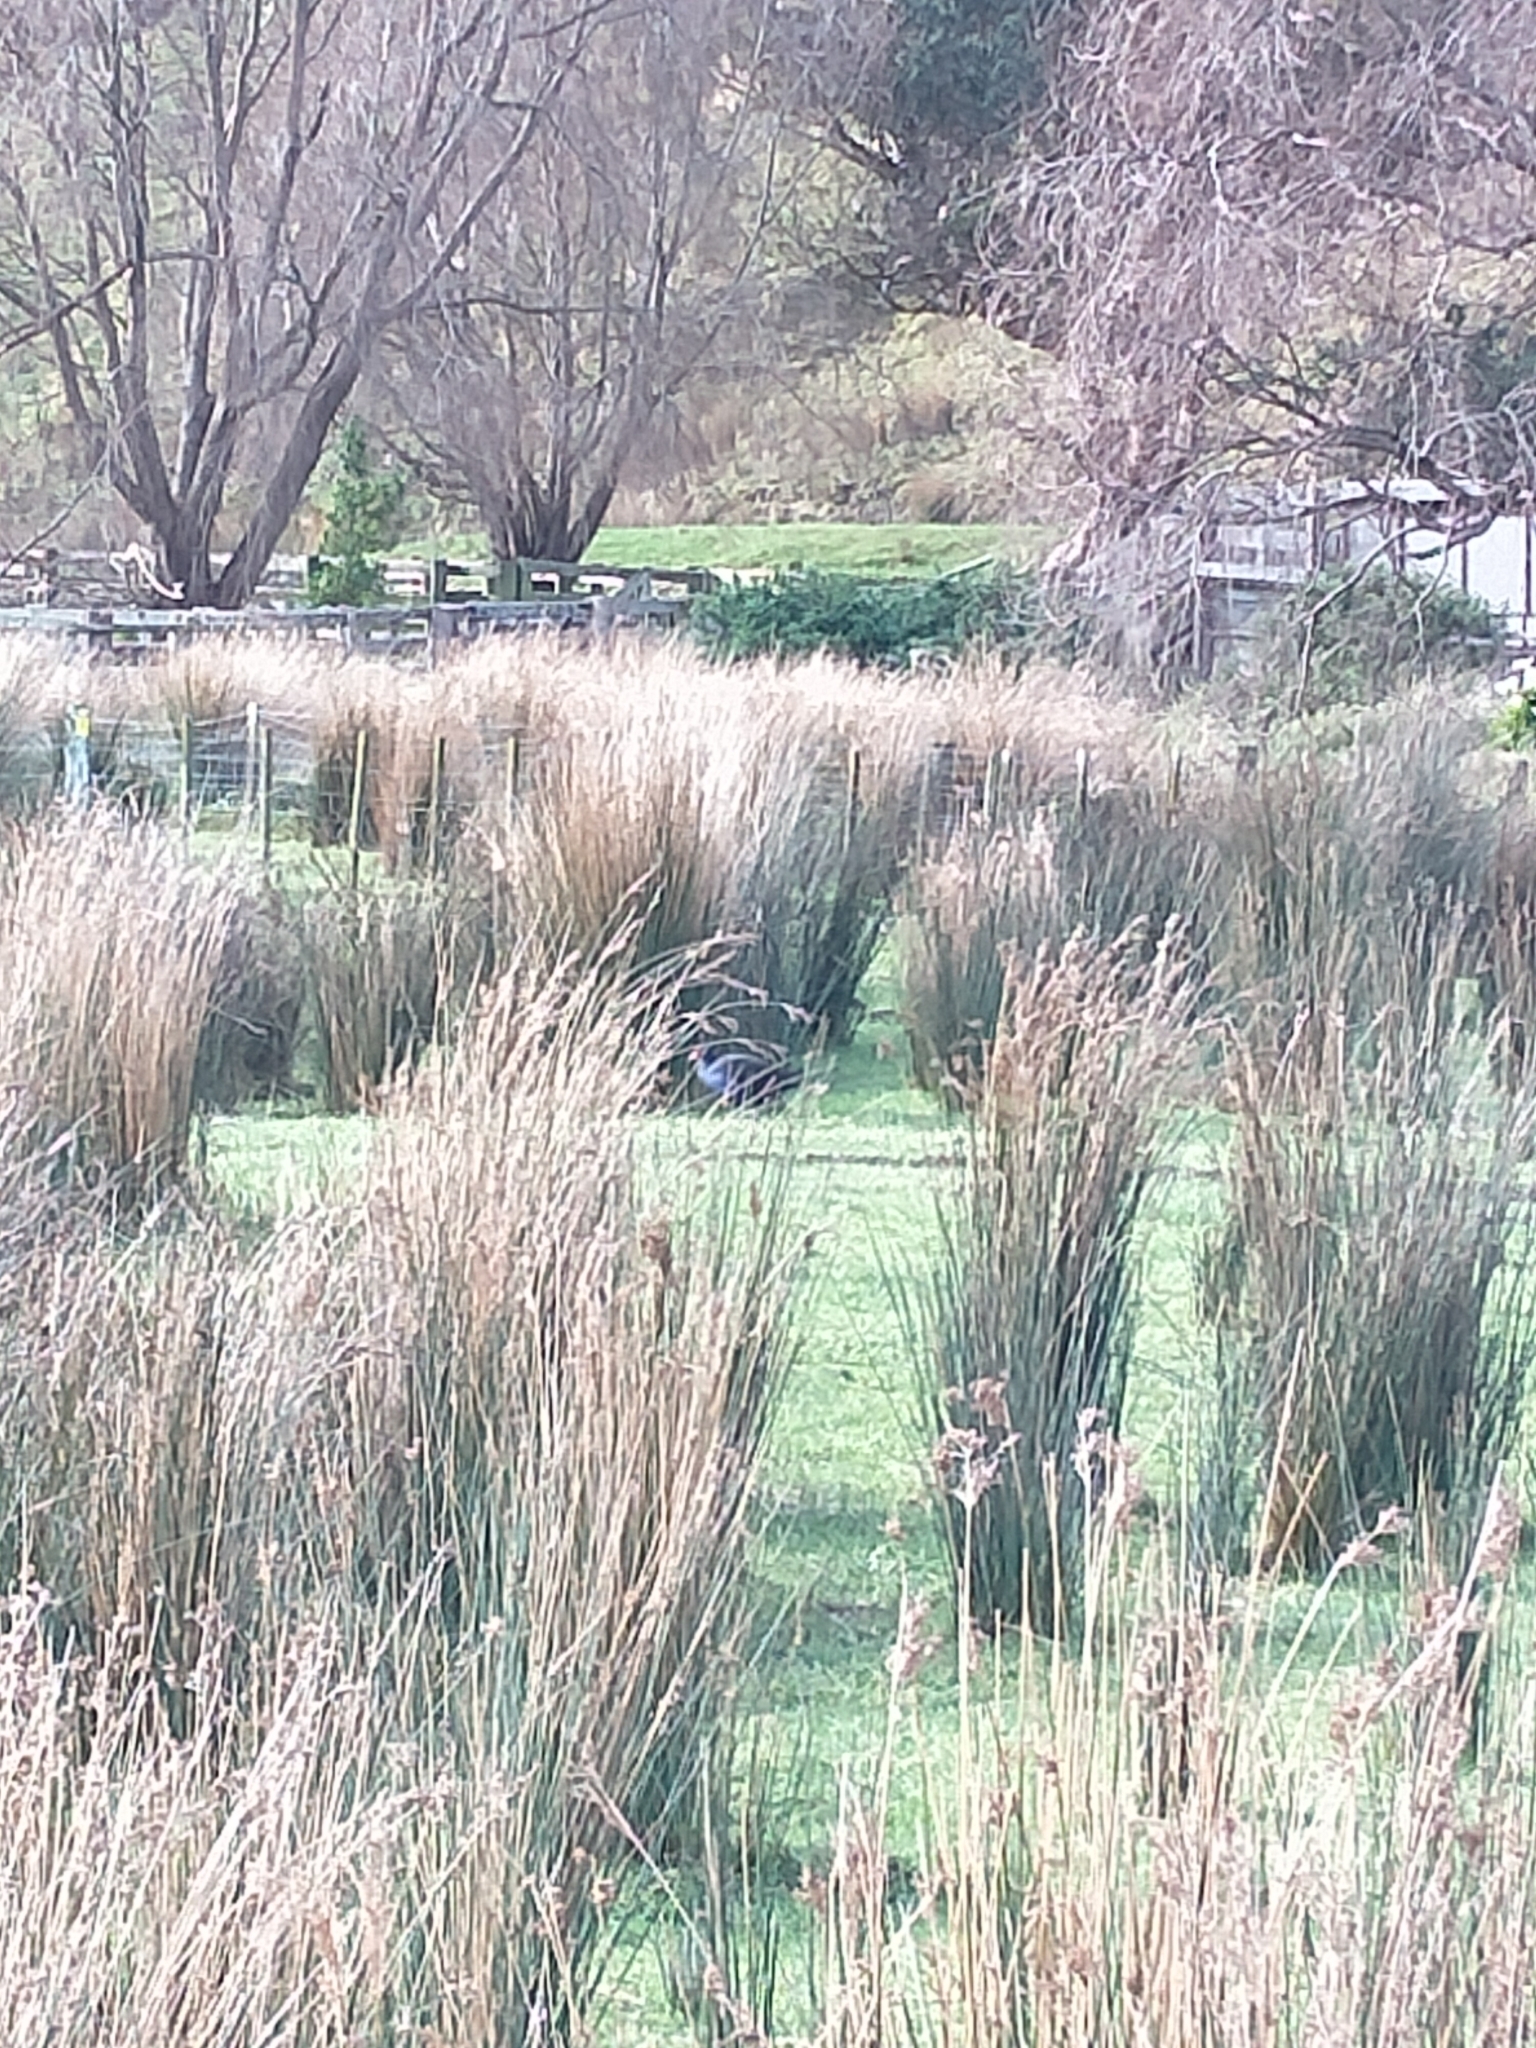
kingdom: Animalia
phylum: Chordata
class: Aves
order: Gruiformes
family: Rallidae
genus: Porphyrio
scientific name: Porphyrio melanotus
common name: Australasian swamphen
